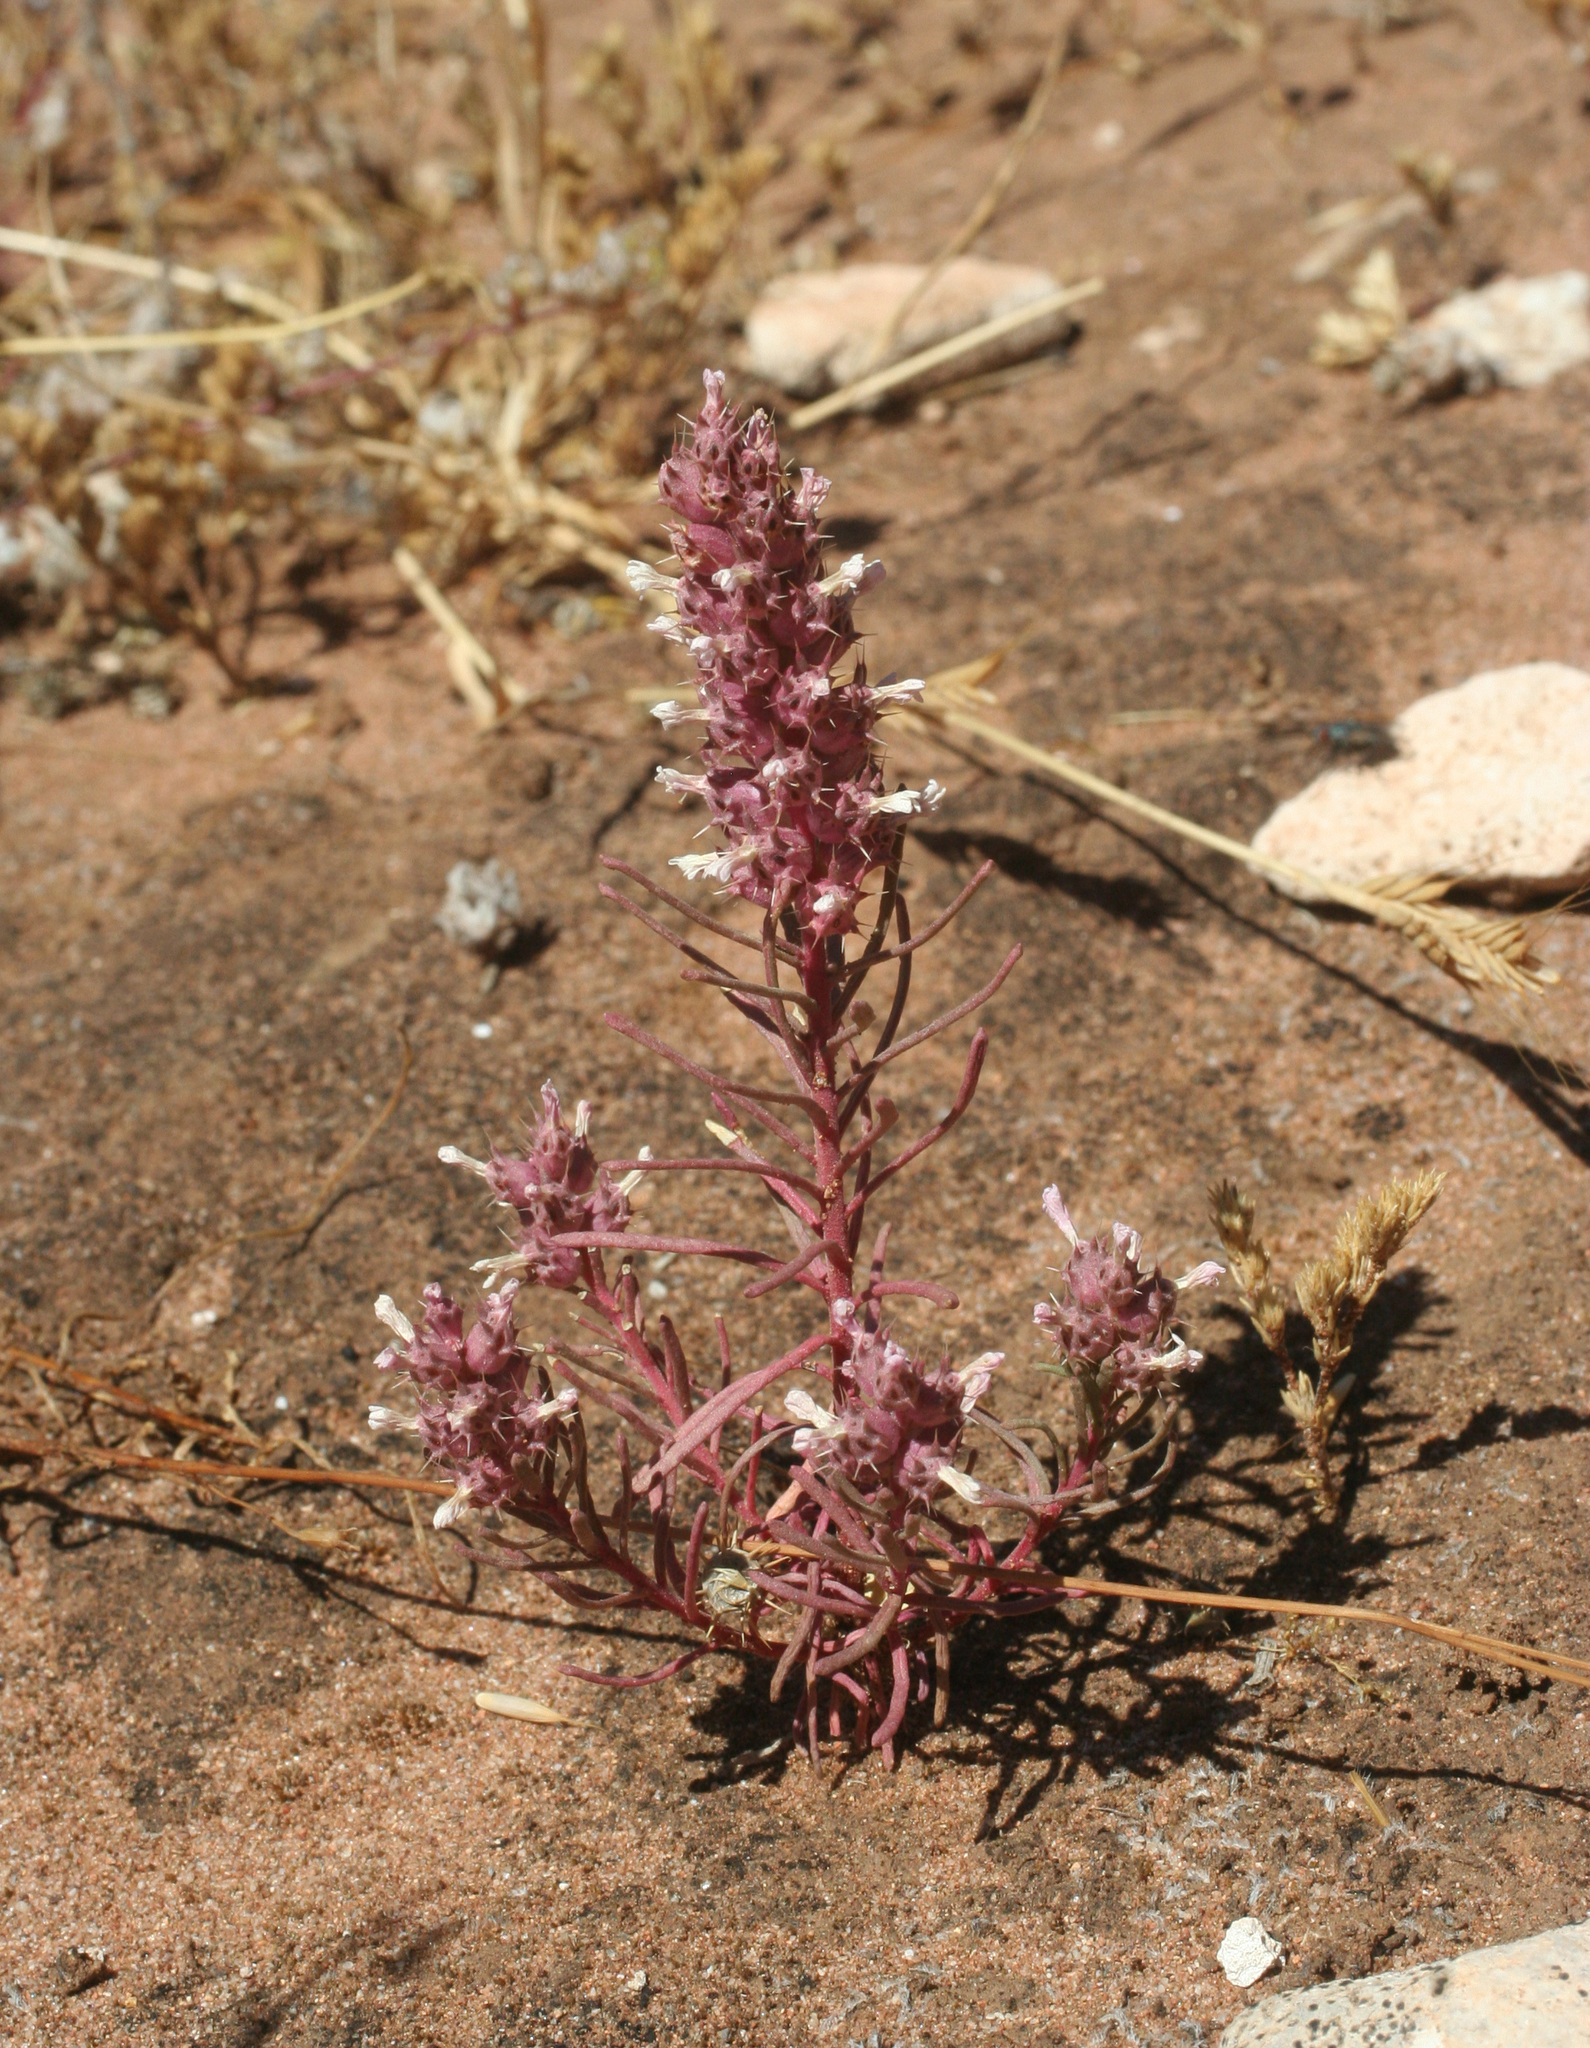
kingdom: Plantae
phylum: Tracheophyta
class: Magnoliopsida
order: Ericales
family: Primulaceae
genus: Coris
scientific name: Coris monspeliensis
